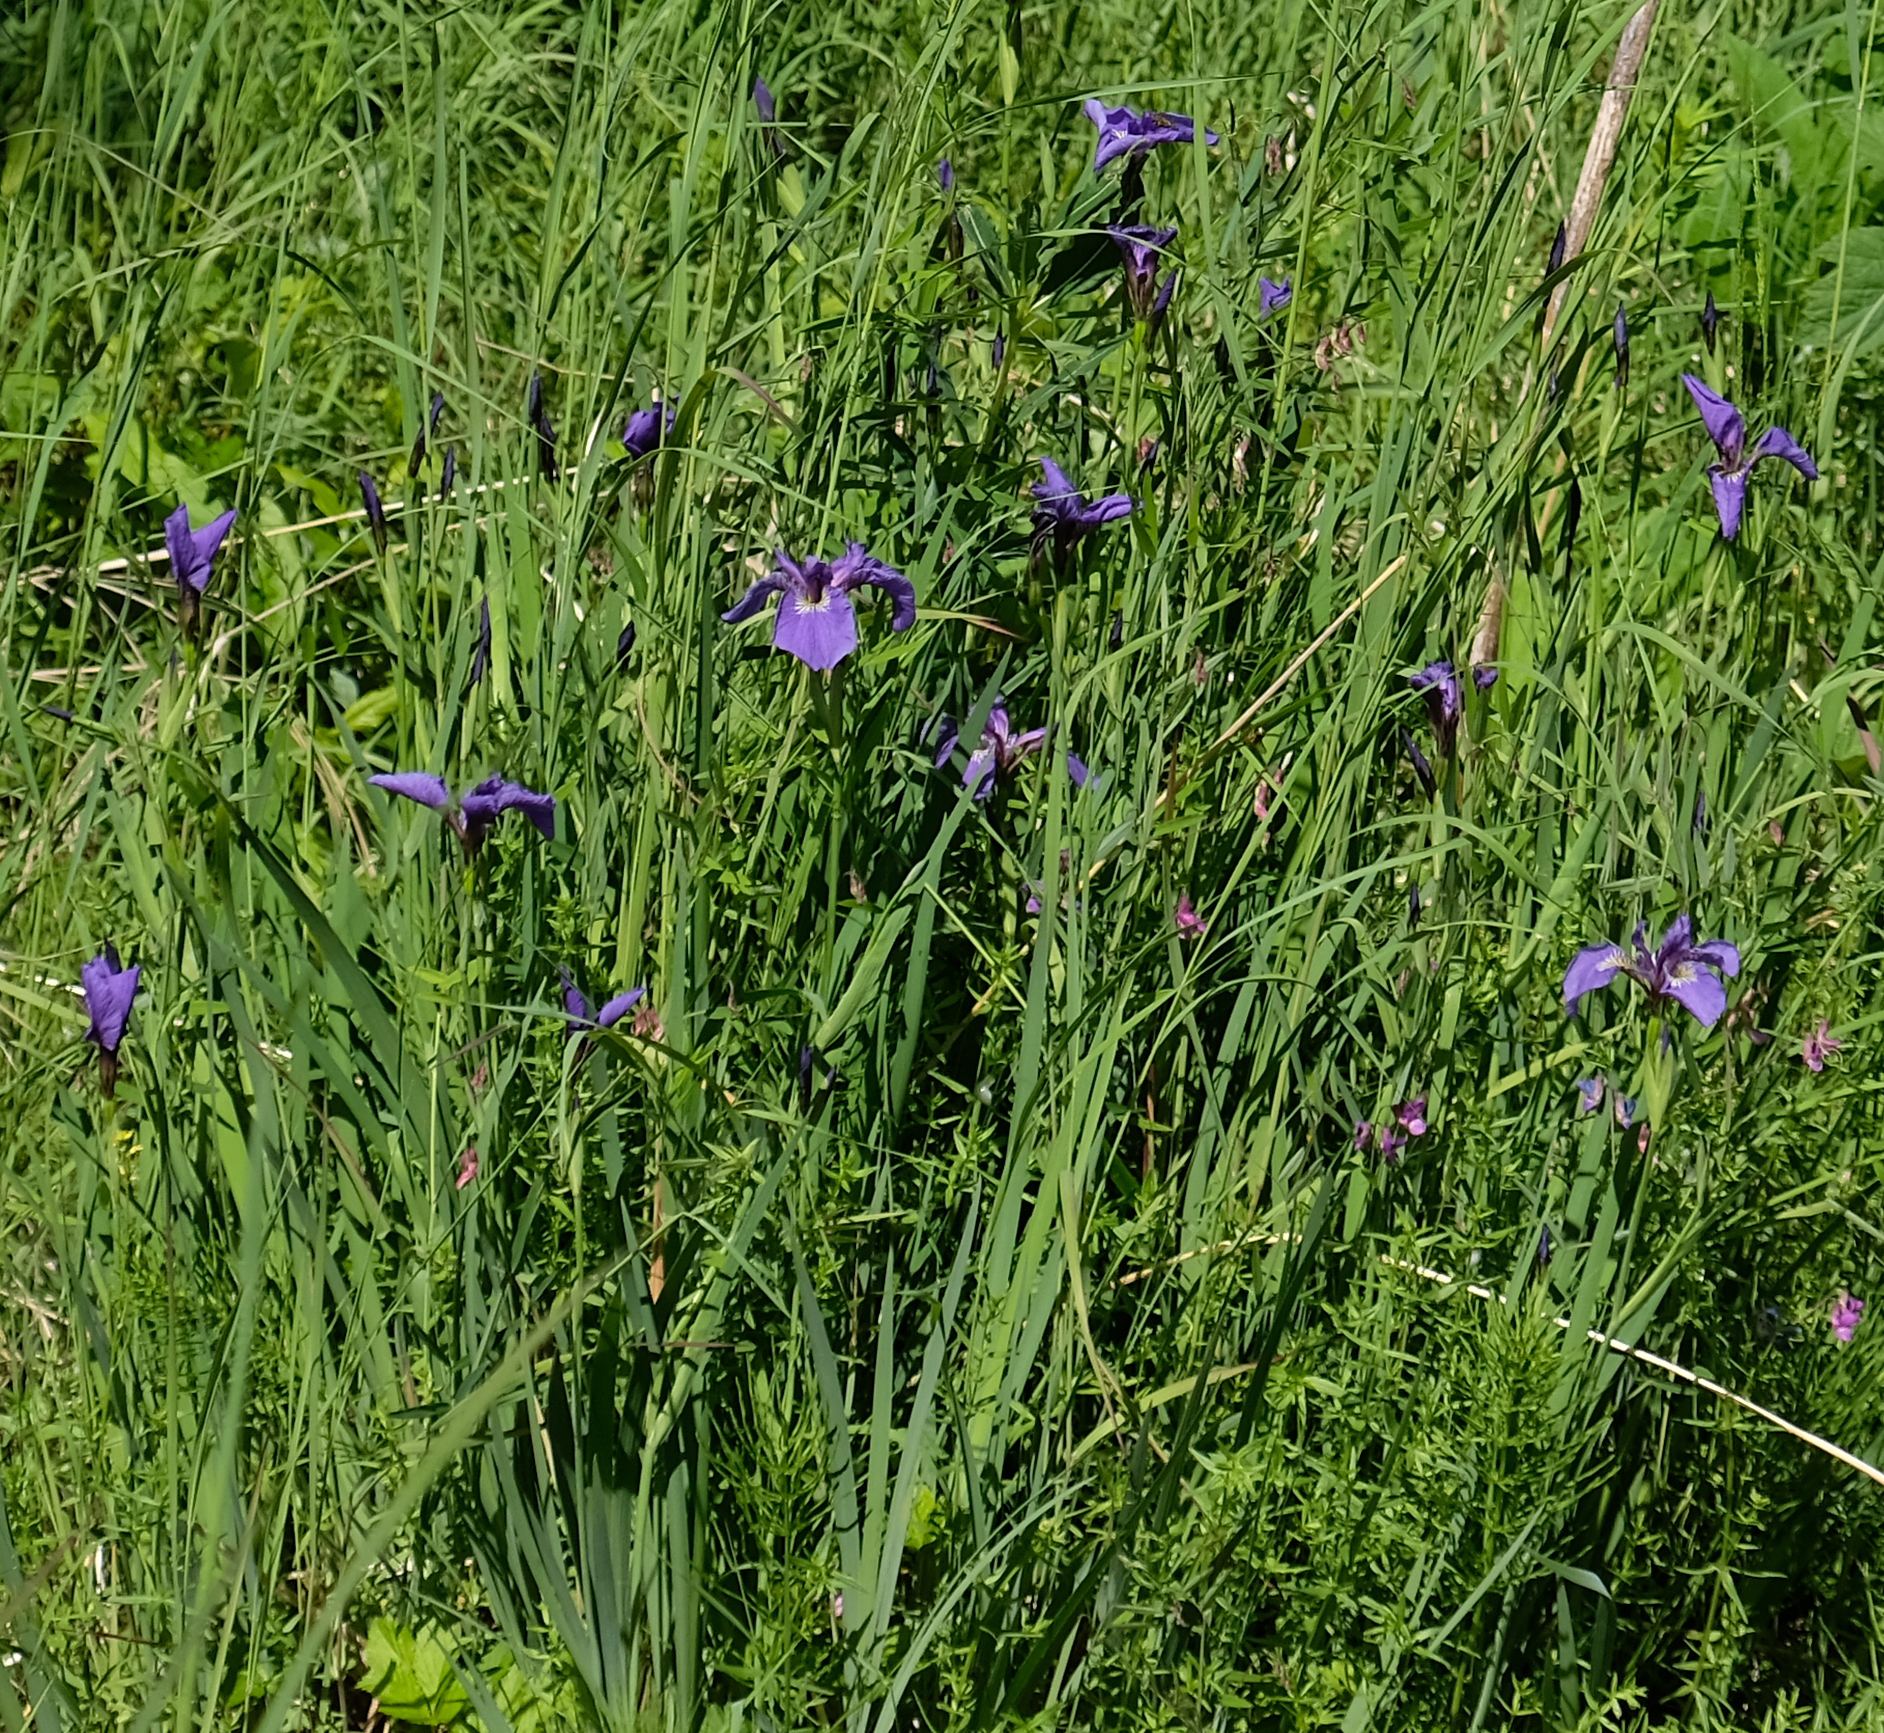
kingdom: Plantae
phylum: Tracheophyta
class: Liliopsida
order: Asparagales
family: Iridaceae
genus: Iris
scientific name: Iris setosa
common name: Arctic blue flag
